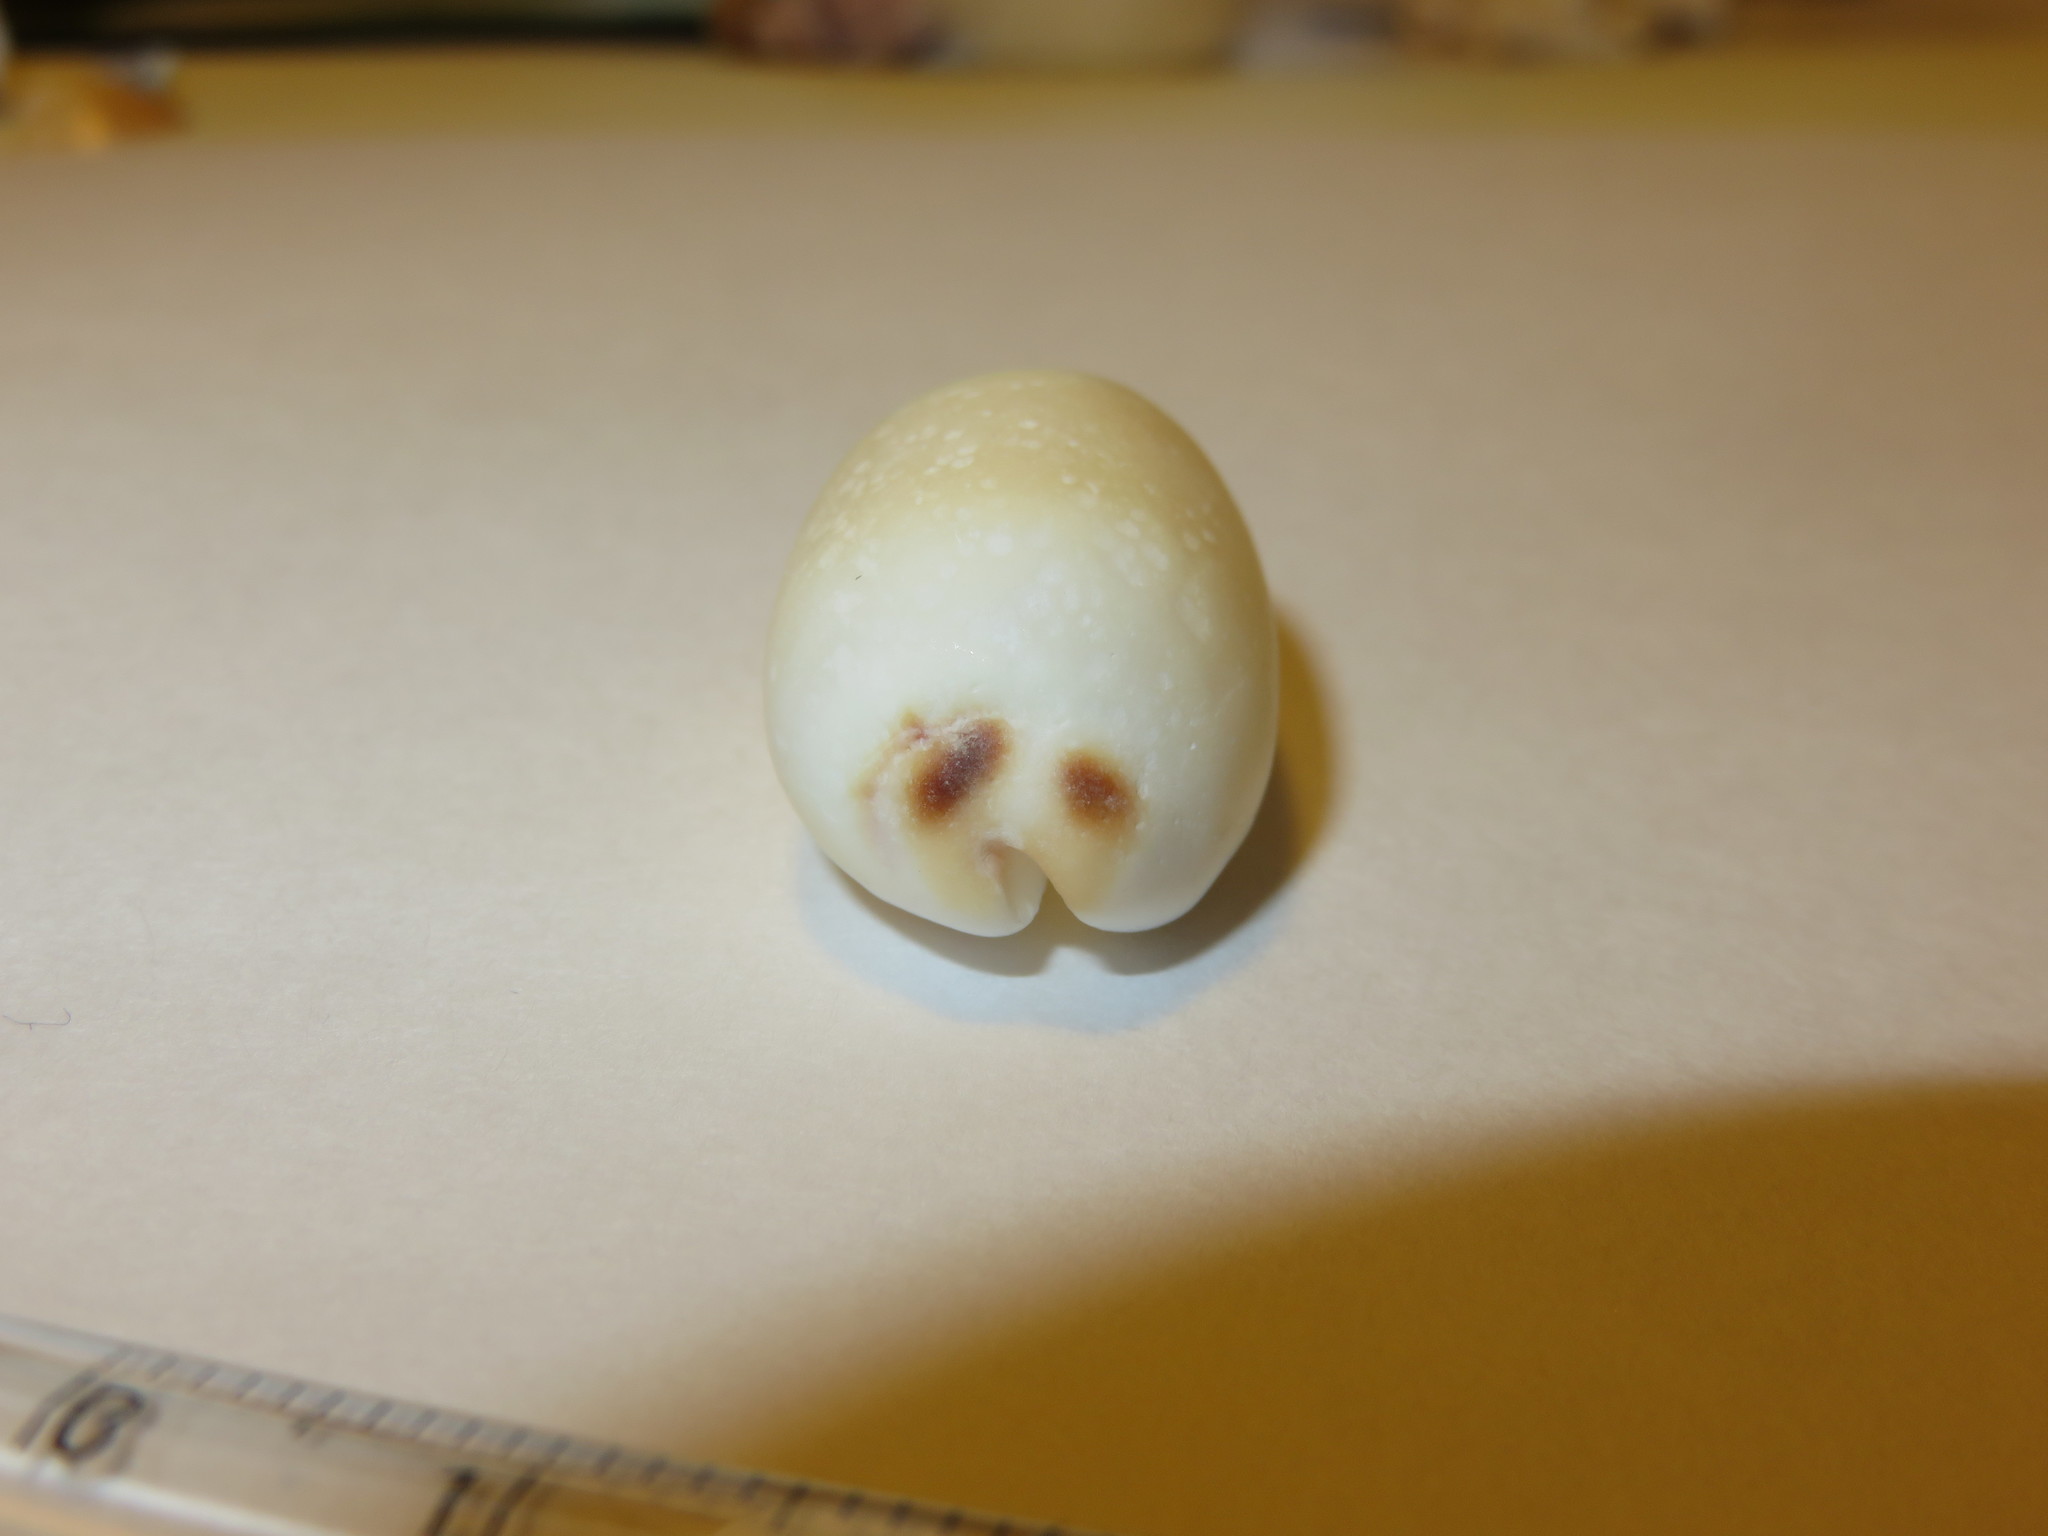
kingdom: Animalia
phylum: Mollusca
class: Gastropoda
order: Littorinimorpha
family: Cypraeidae
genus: Luria
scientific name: Luria isabella
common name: Isabell cowry
